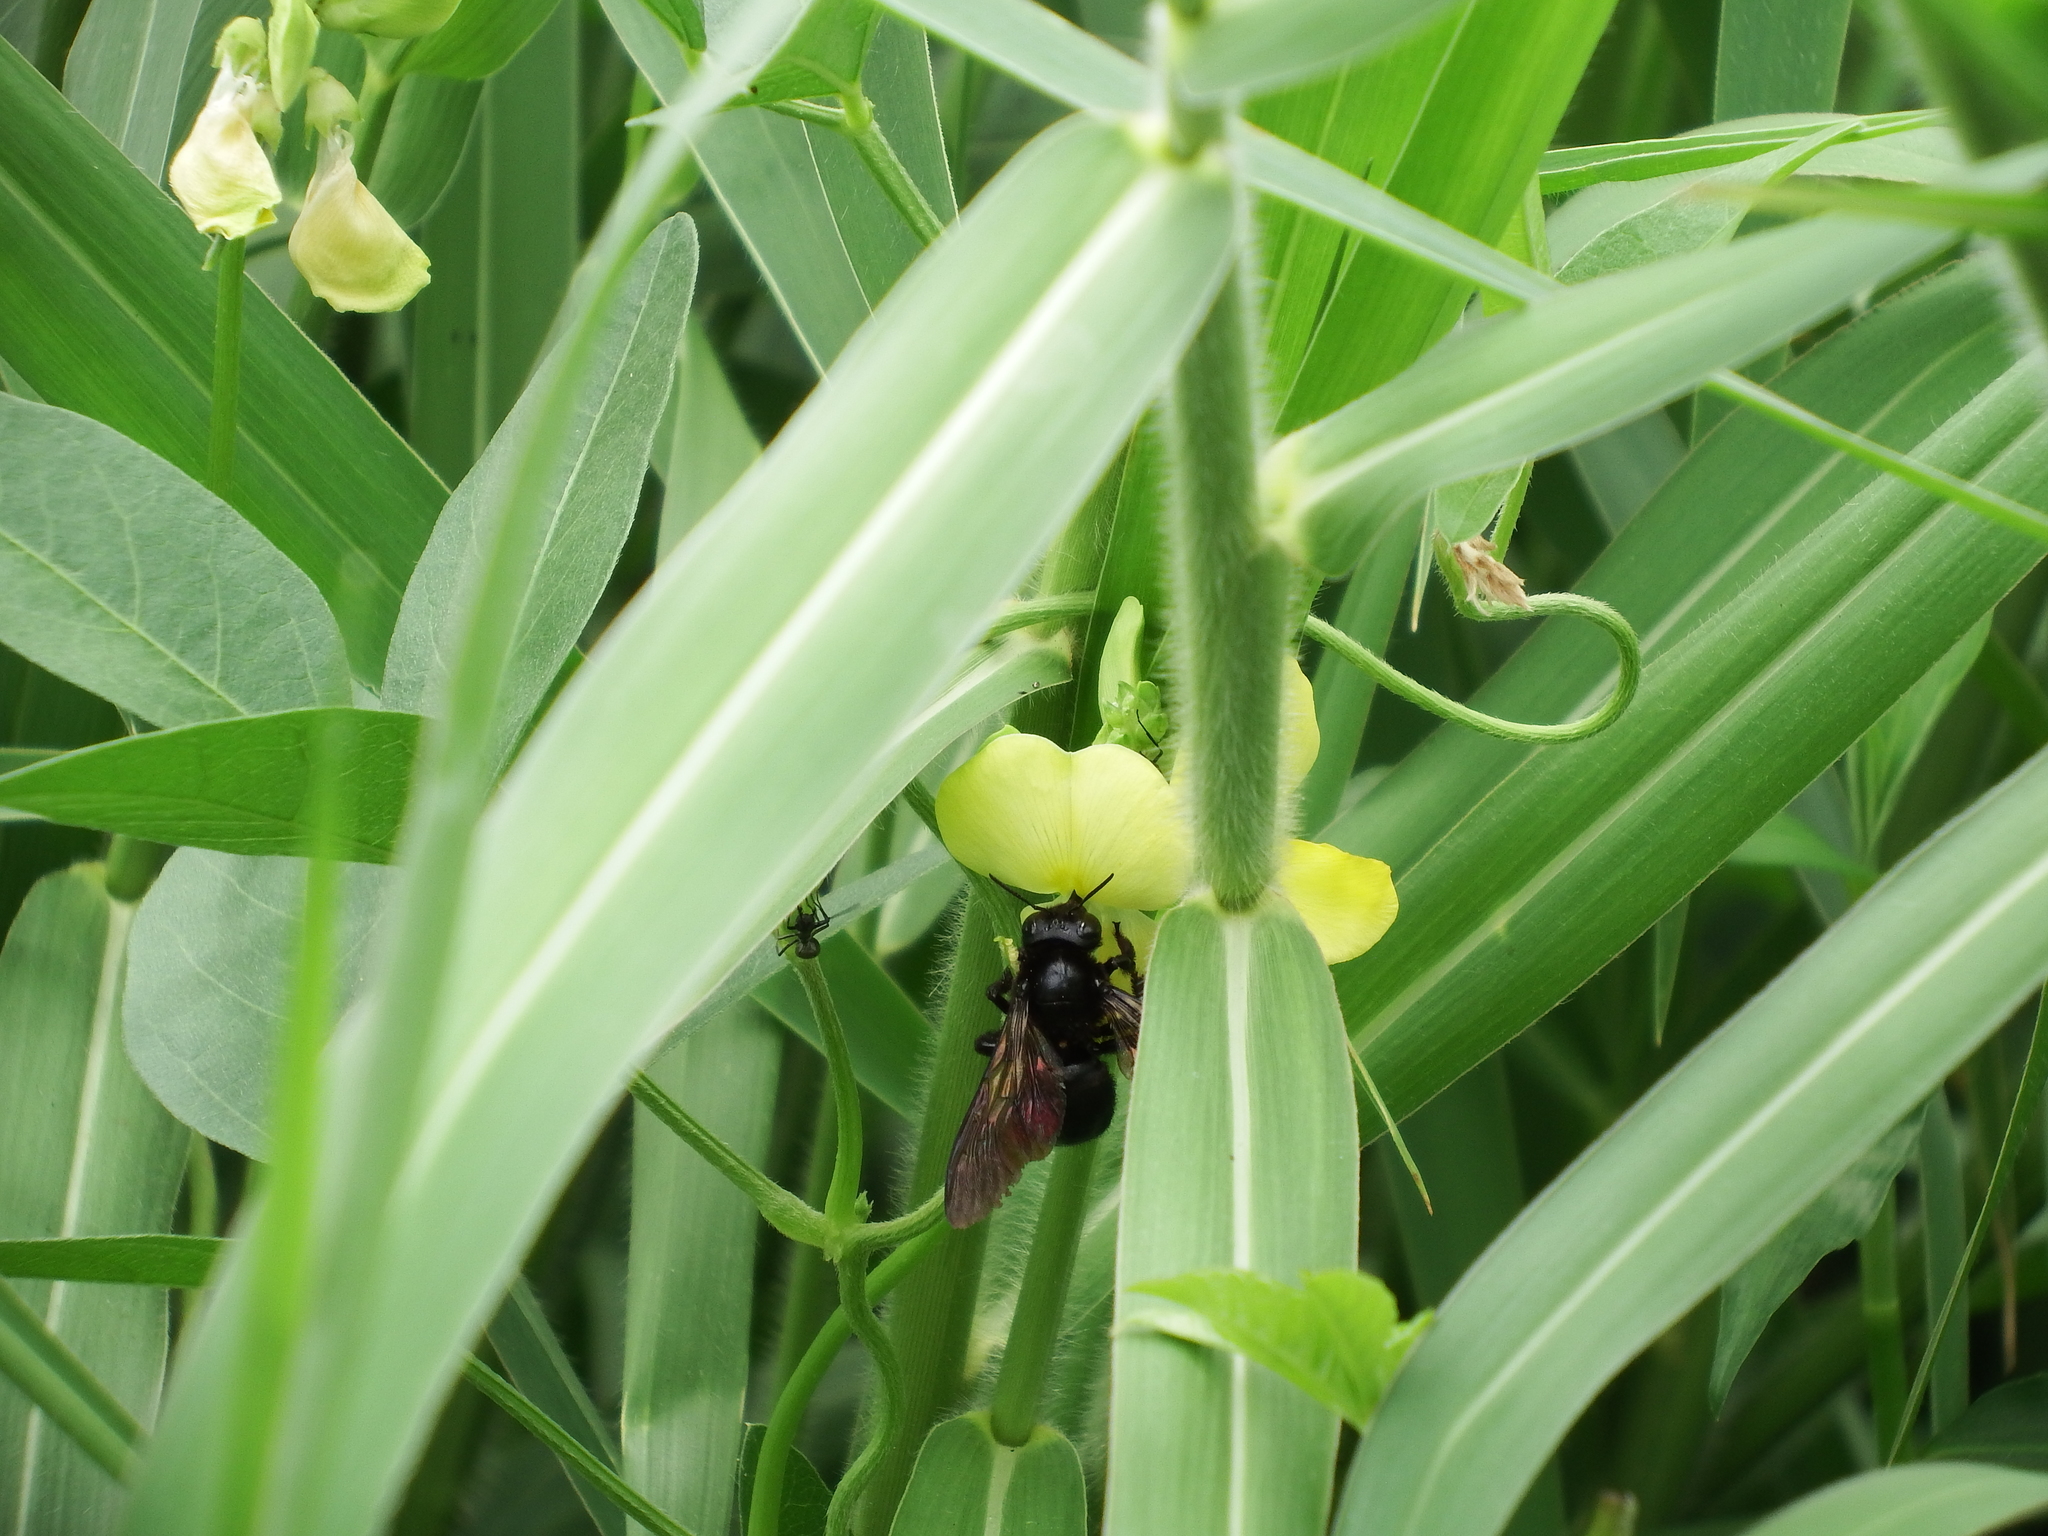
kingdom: Animalia
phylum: Arthropoda
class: Insecta
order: Hymenoptera
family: Apidae
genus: Xylocopa
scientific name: Xylocopa tranquebarorum
